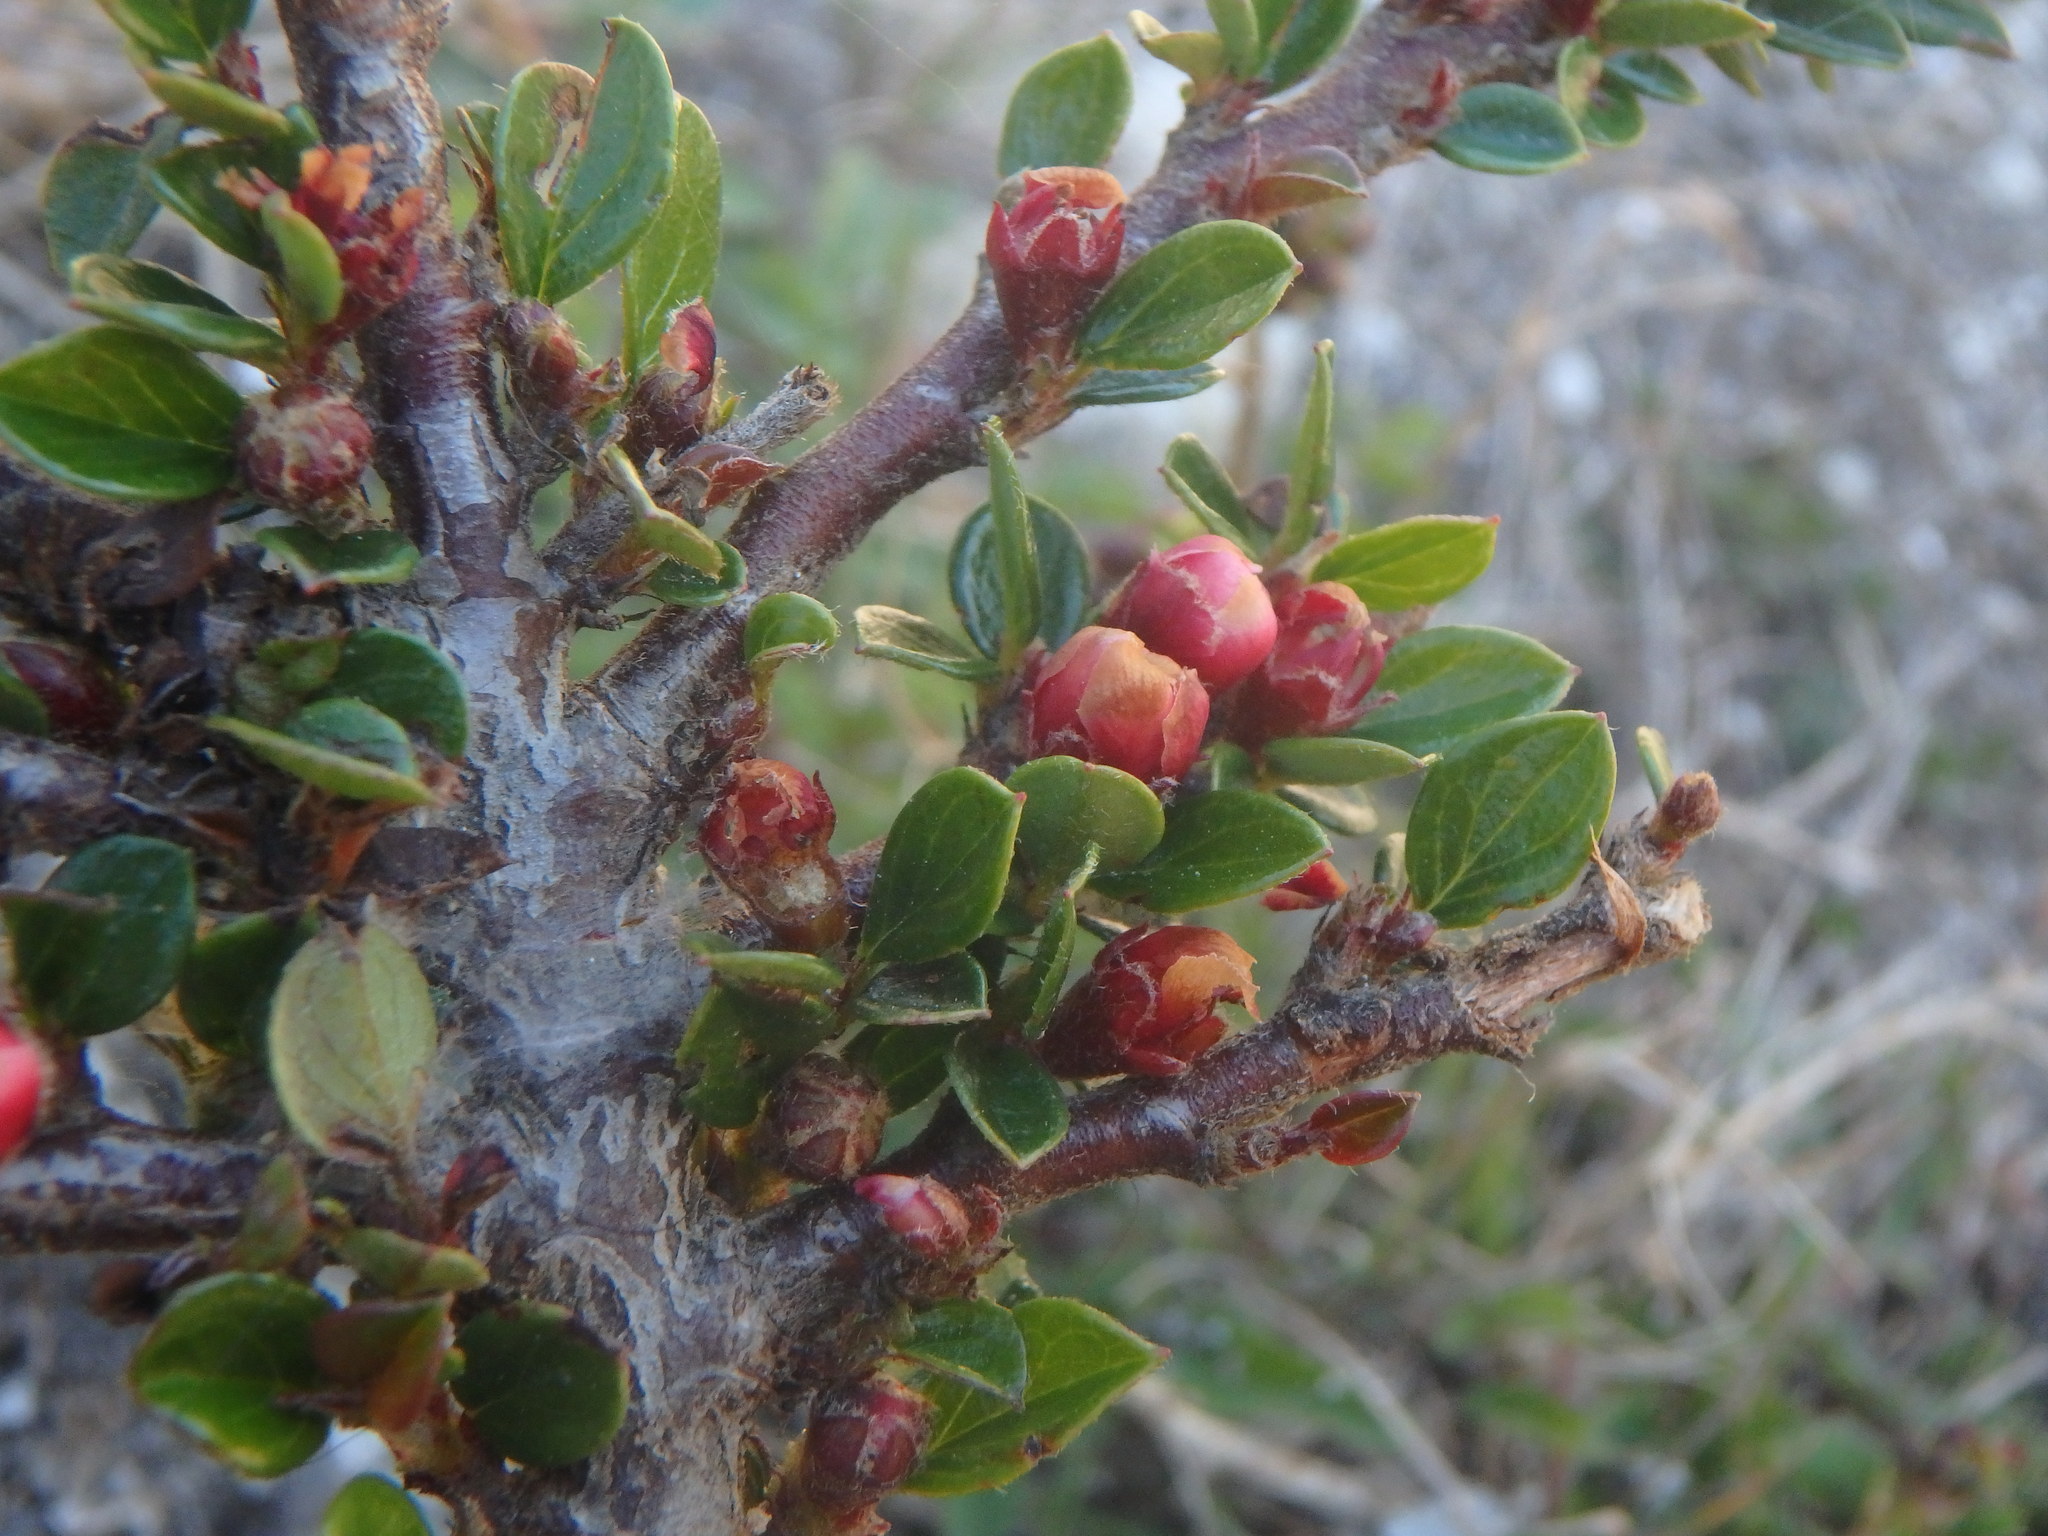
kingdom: Plantae
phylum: Tracheophyta
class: Magnoliopsida
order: Rosales
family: Rosaceae
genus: Cotoneaster
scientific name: Cotoneaster horizontalis
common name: Wall cotoneaster
